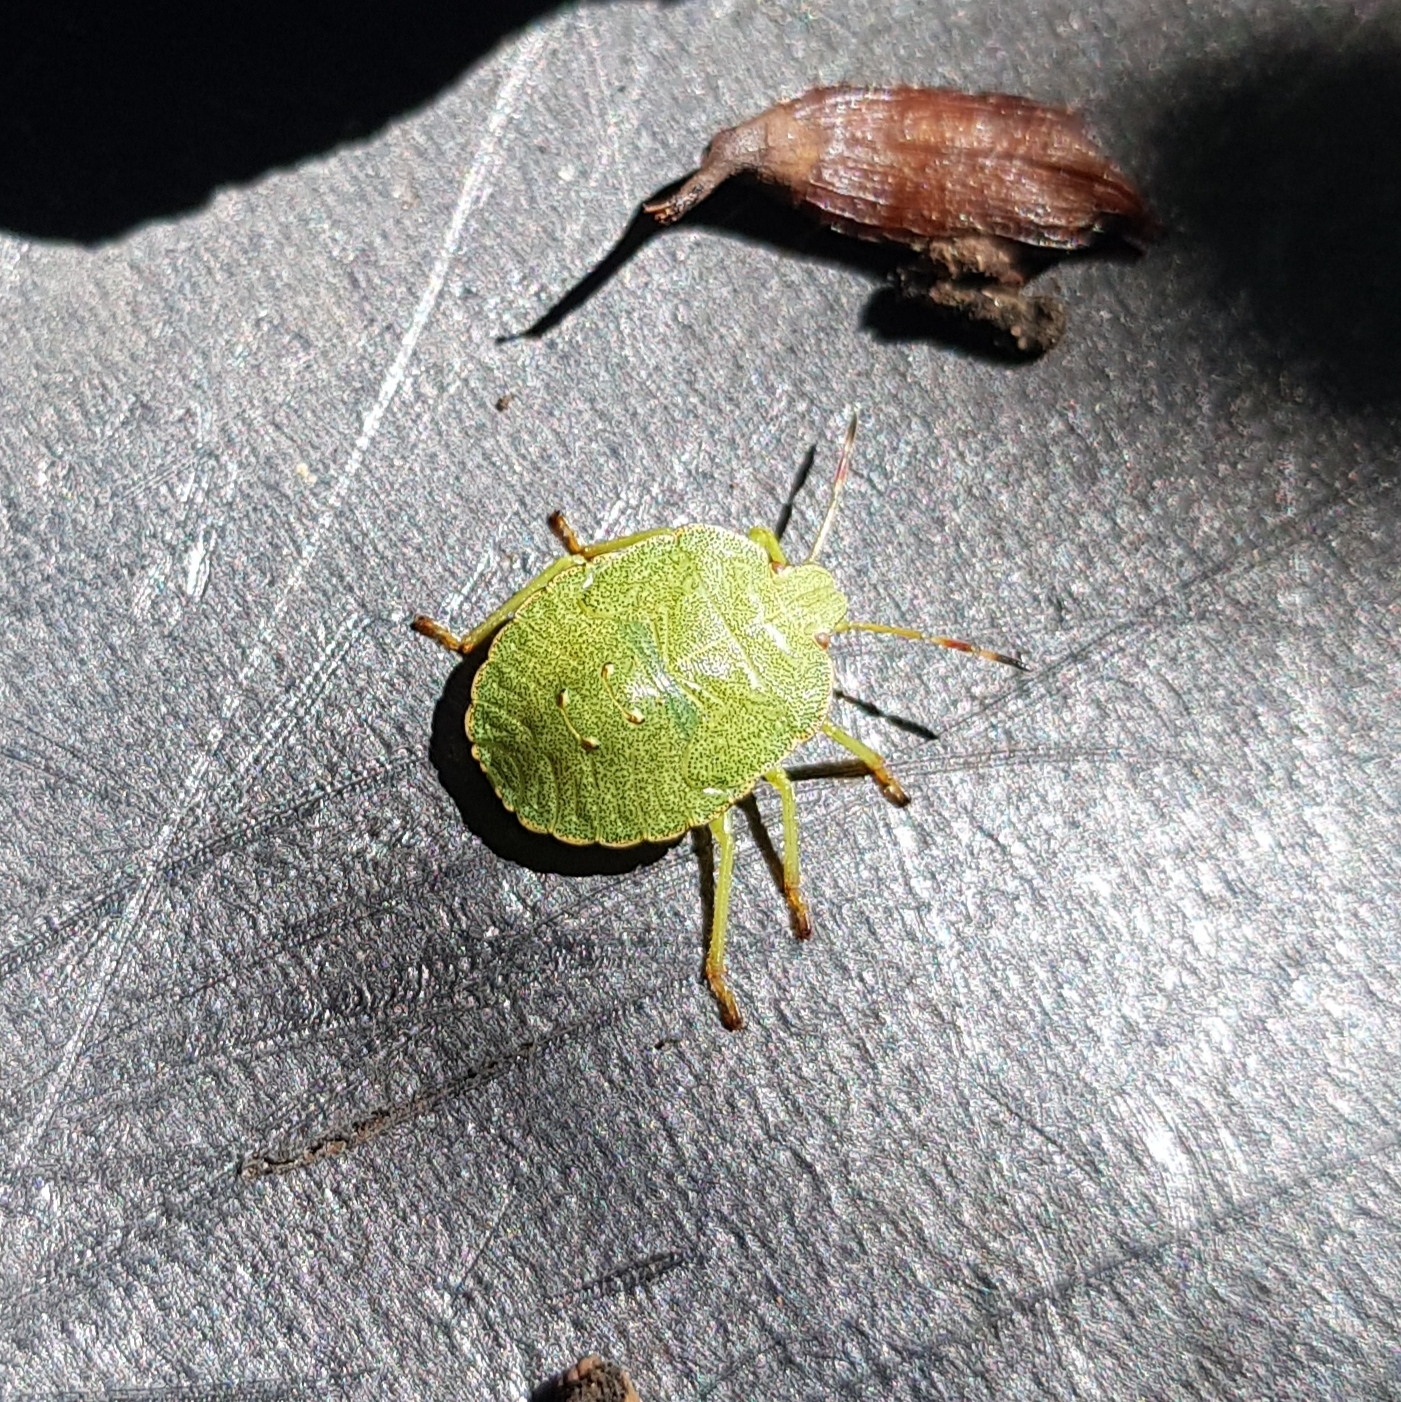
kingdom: Animalia
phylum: Arthropoda
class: Insecta
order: Hemiptera
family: Pentatomidae
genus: Palomena
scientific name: Palomena prasina
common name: Green shieldbug
